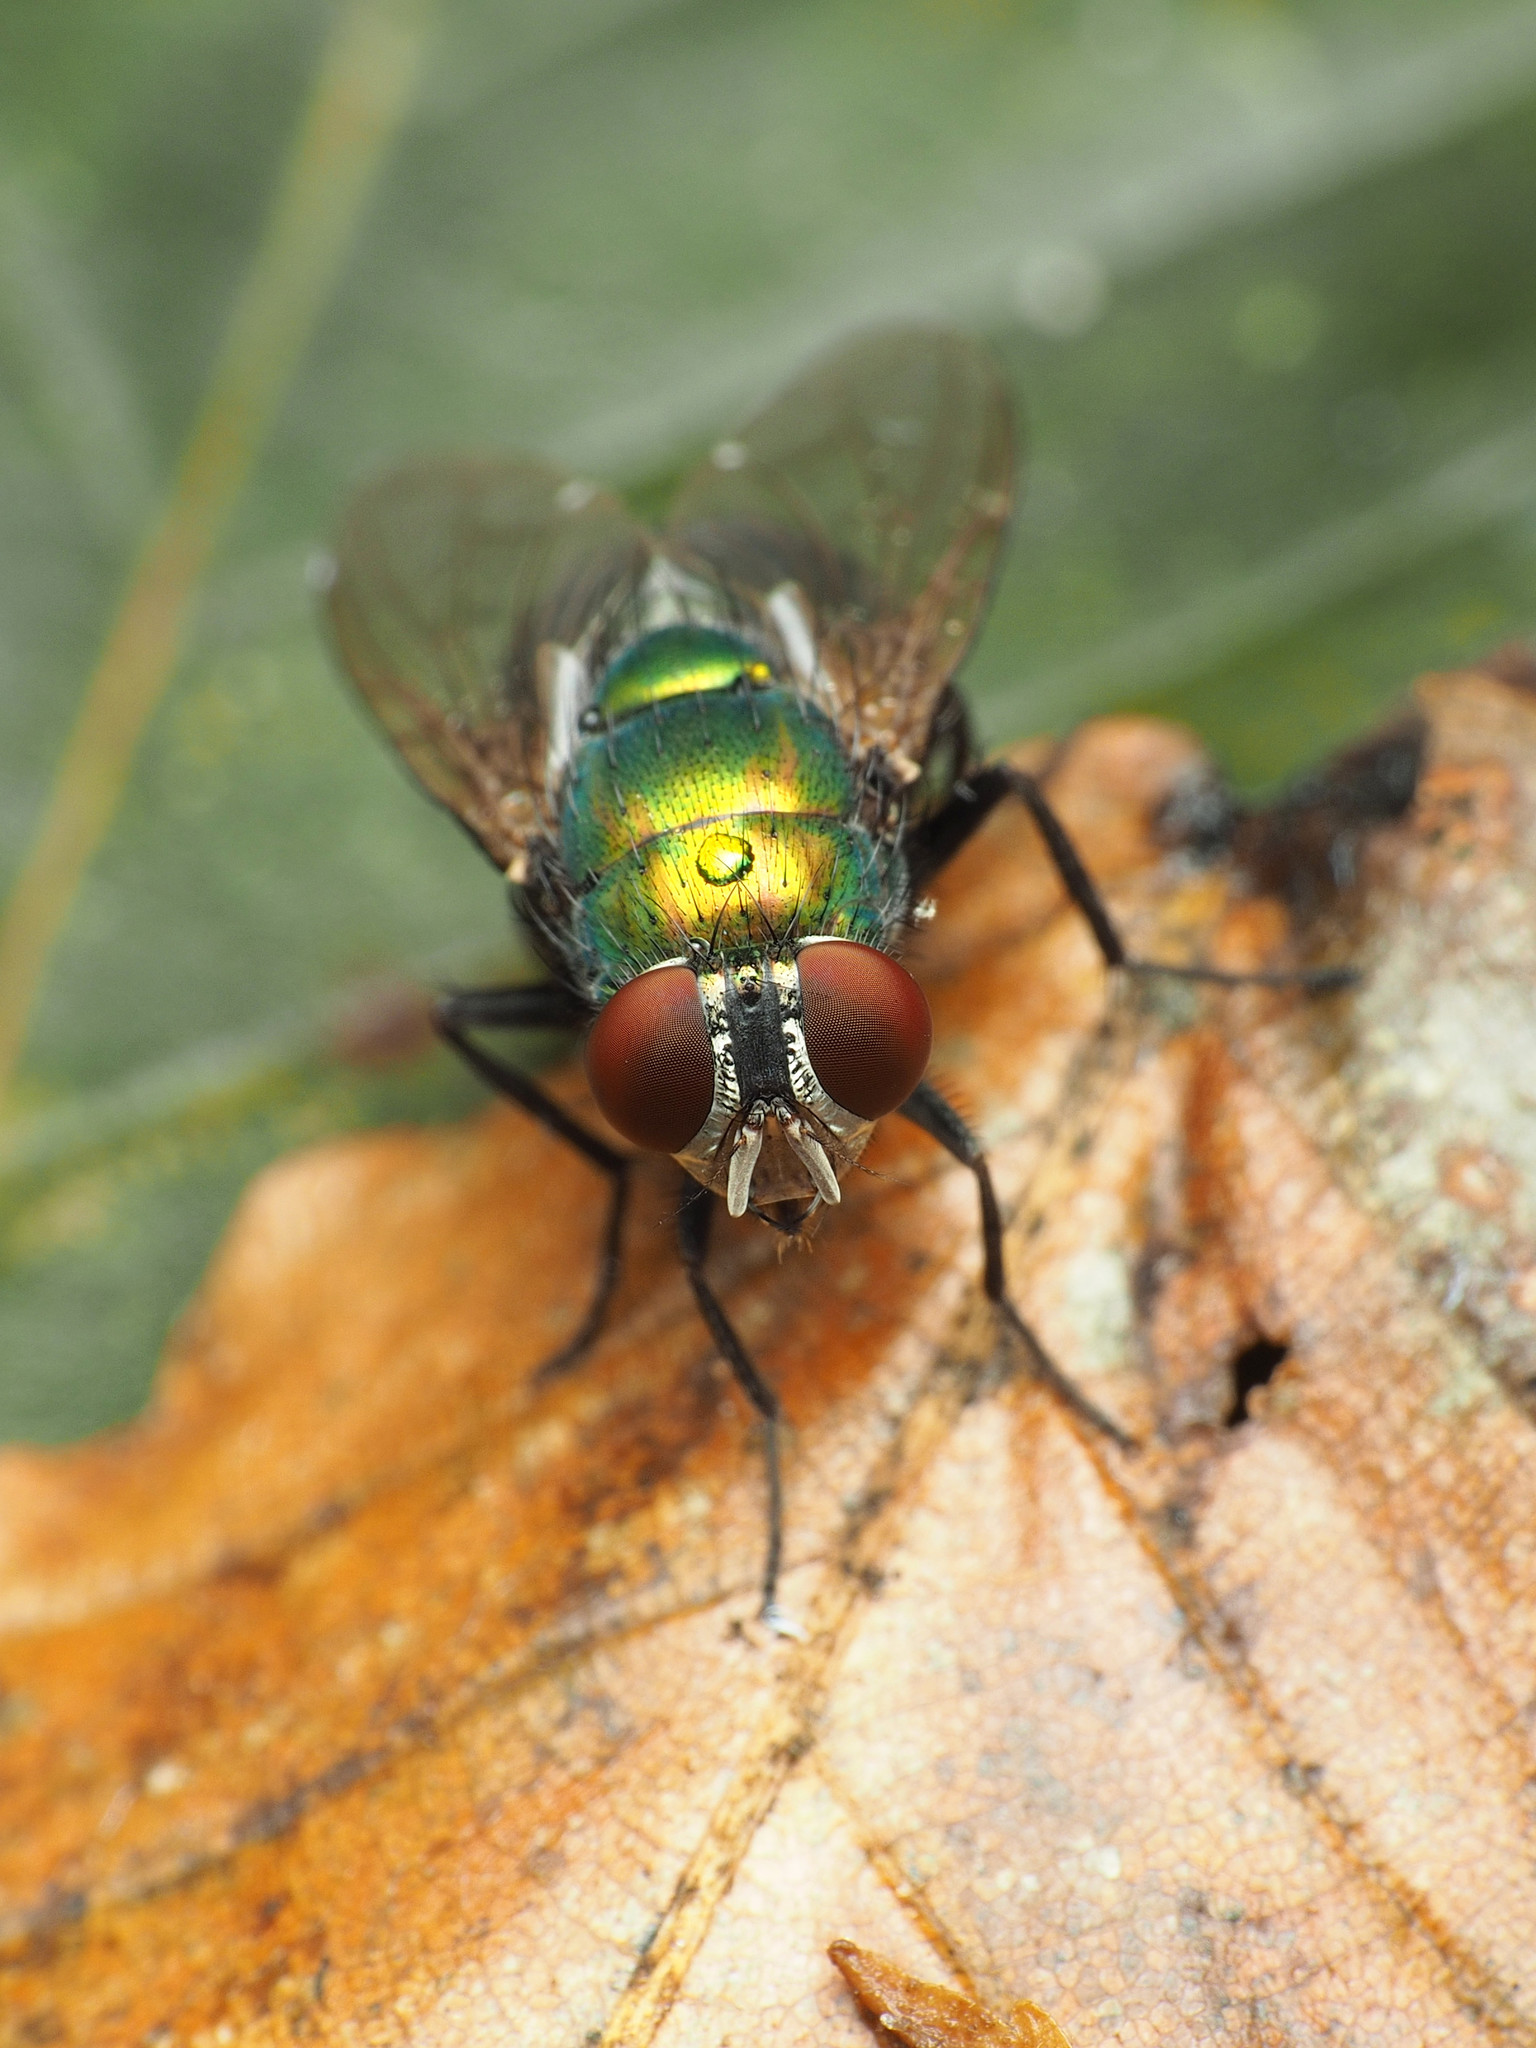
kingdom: Animalia
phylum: Arthropoda
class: Insecta
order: Diptera
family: Calliphoridae
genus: Lucilia
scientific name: Lucilia caeruleiviridis
